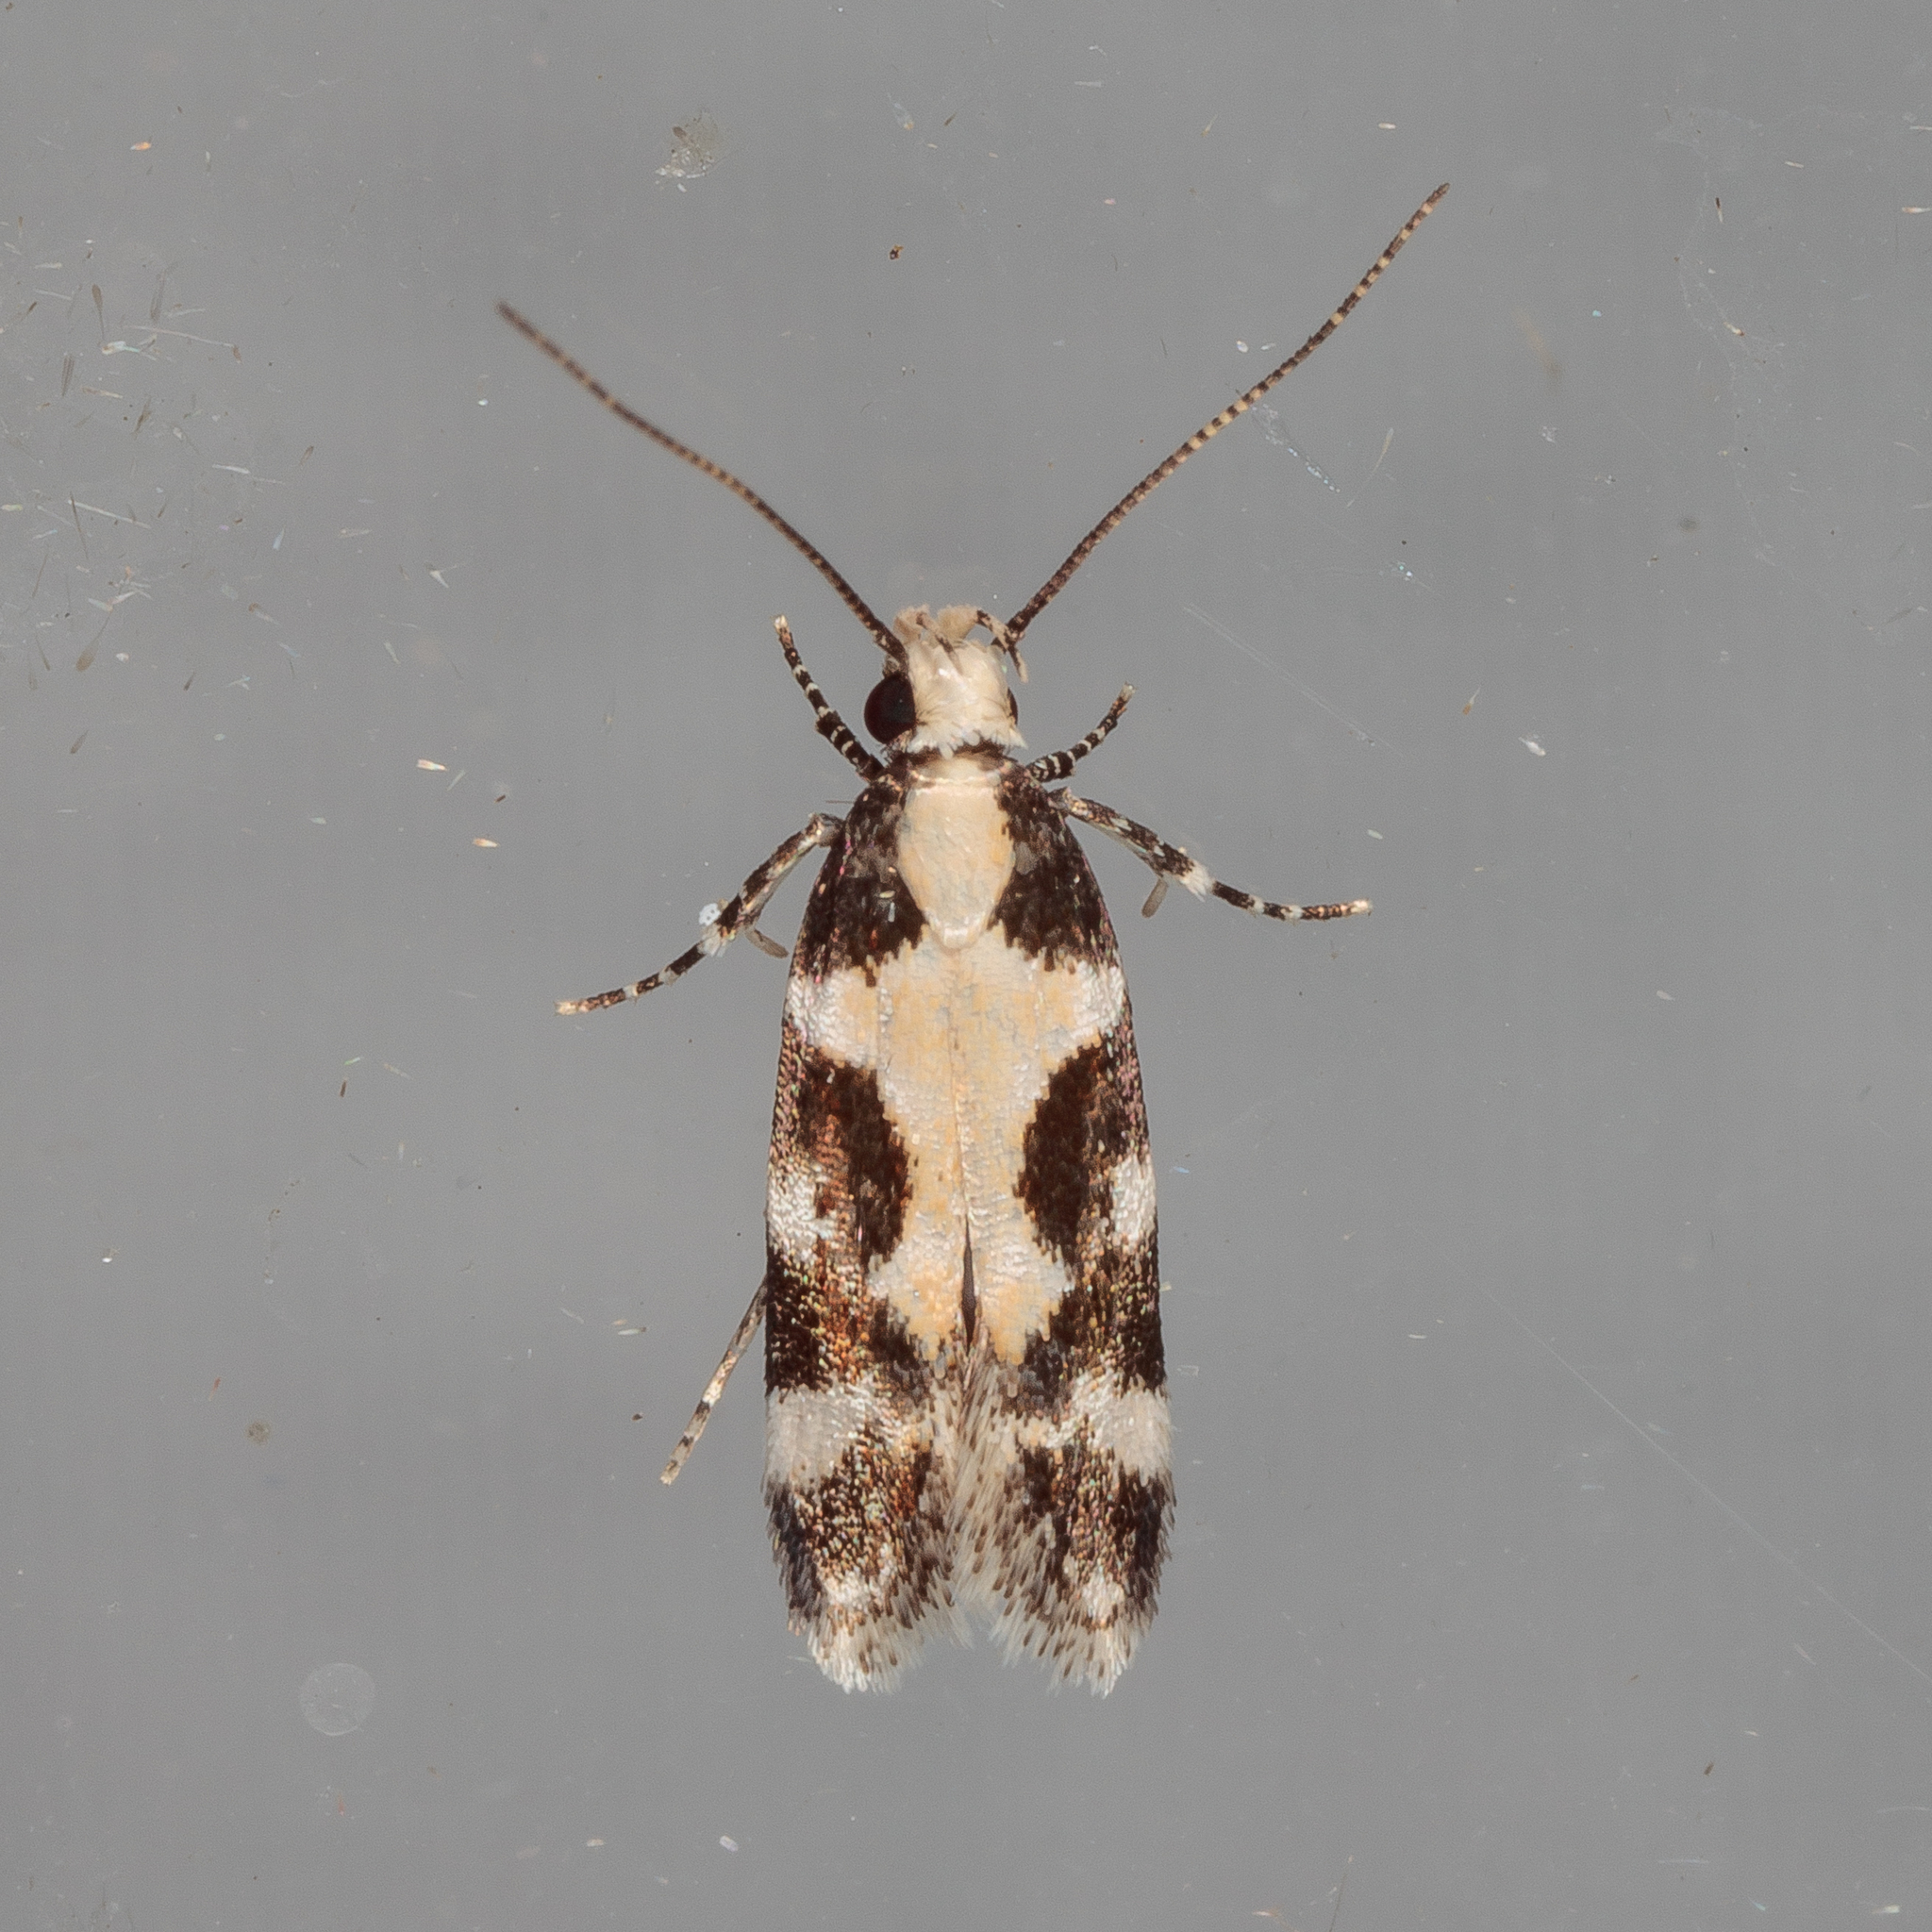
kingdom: Animalia
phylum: Arthropoda
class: Insecta
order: Lepidoptera
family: Gelechiidae
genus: Stegasta
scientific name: Stegasta capitella
